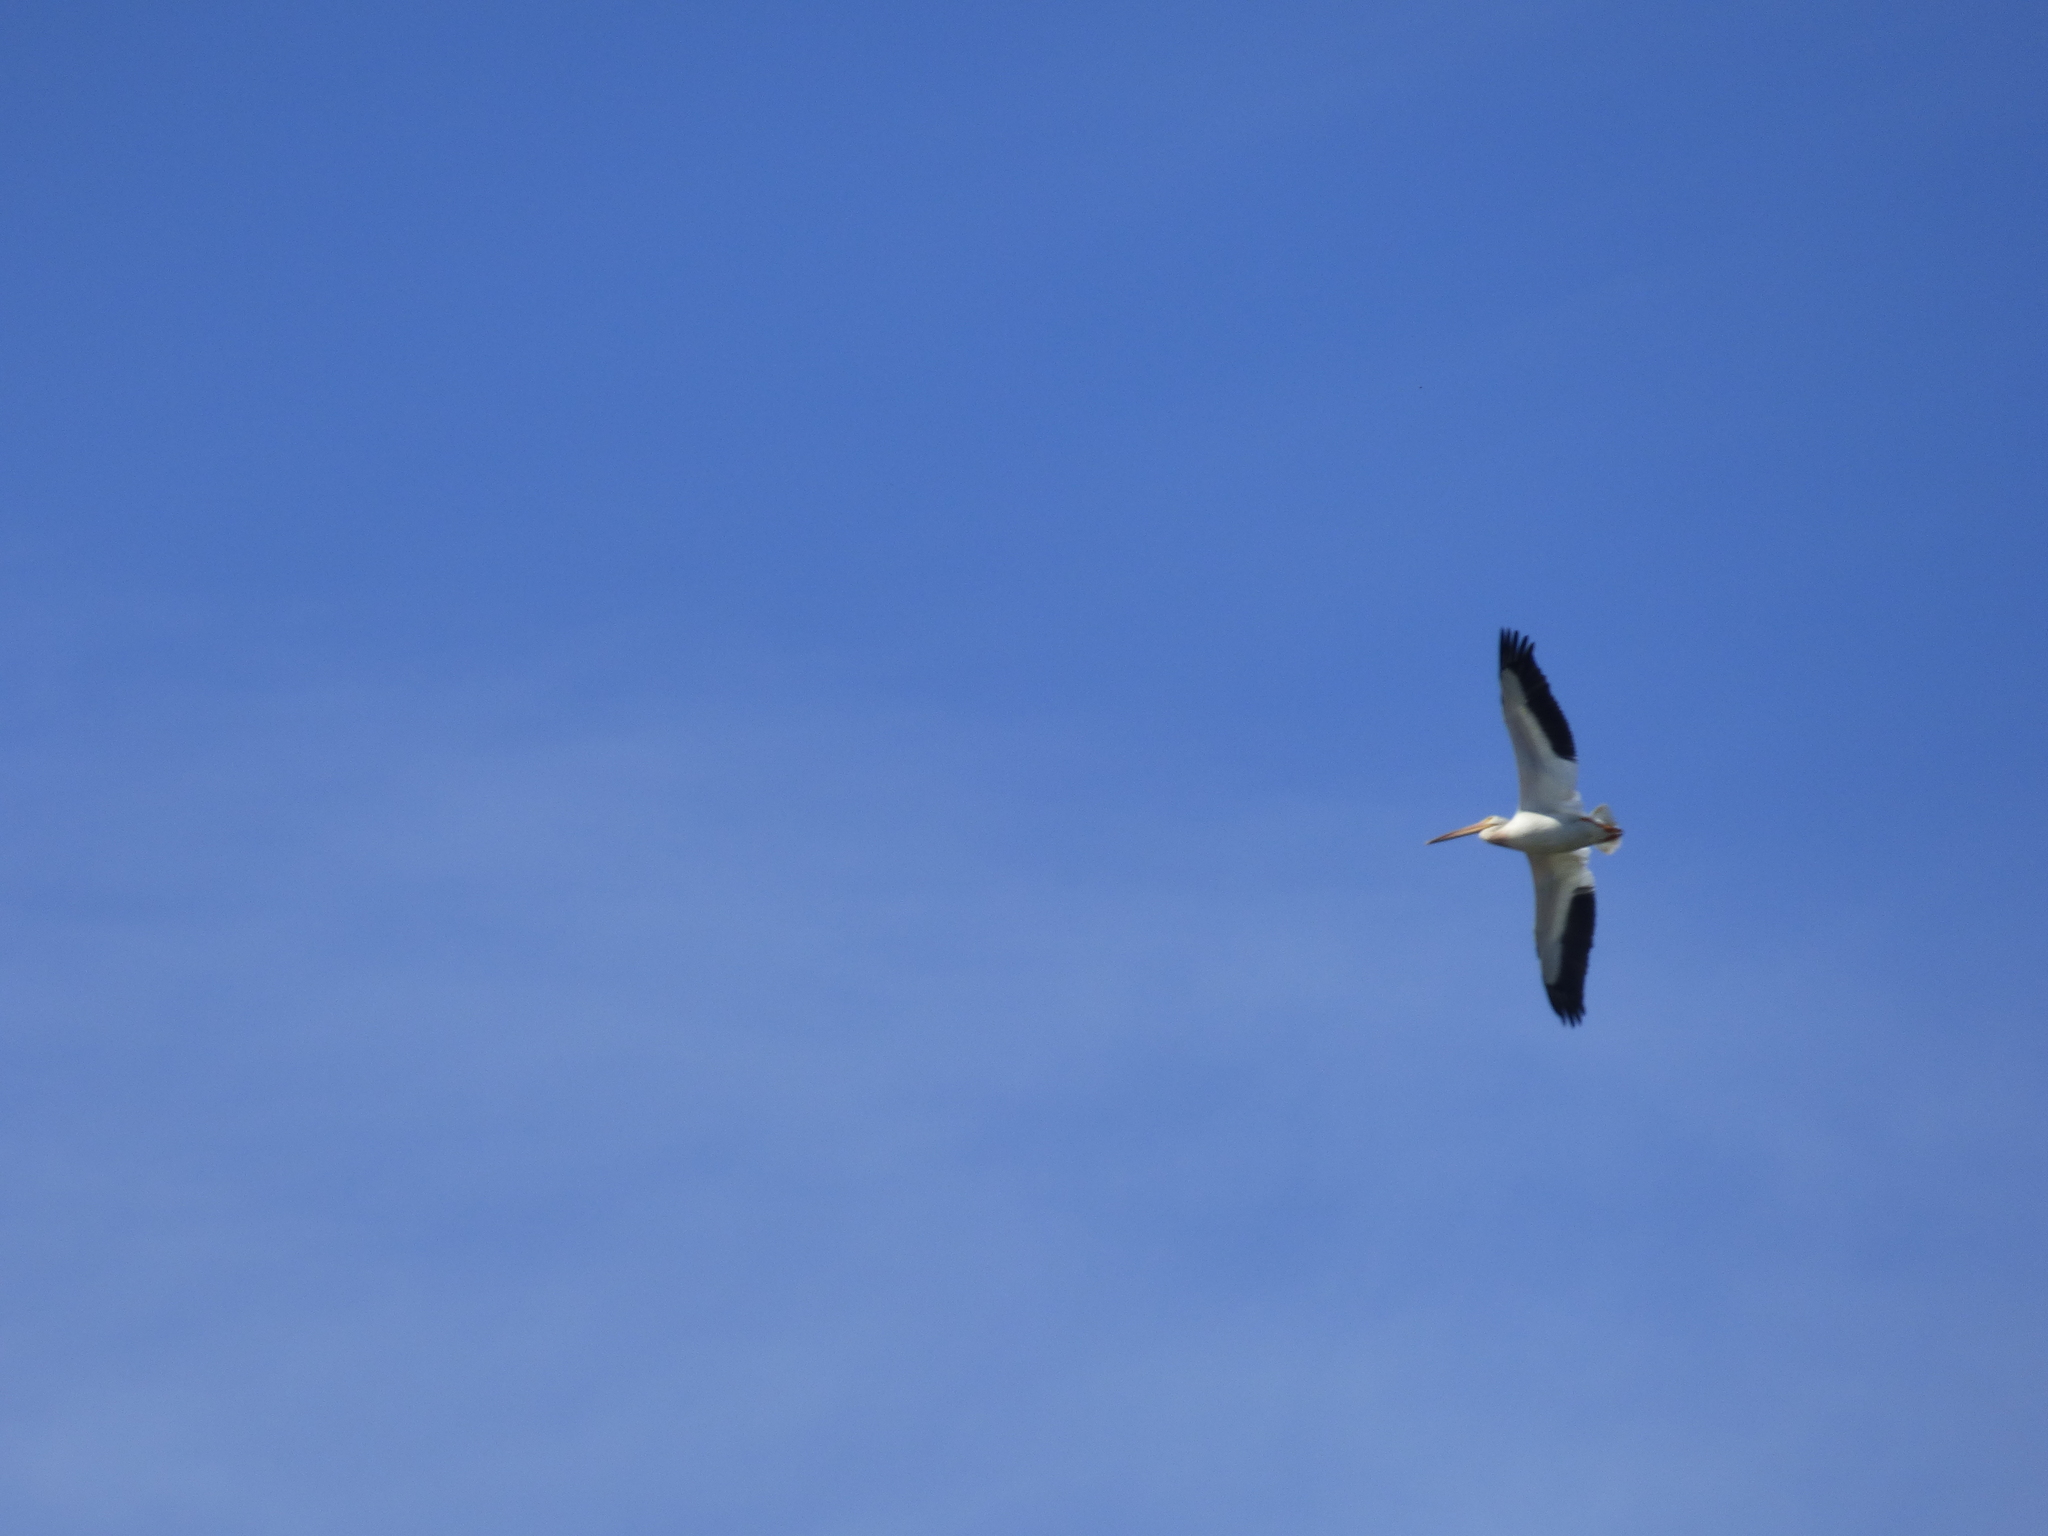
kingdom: Animalia
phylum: Chordata
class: Aves
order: Pelecaniformes
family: Pelecanidae
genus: Pelecanus
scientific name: Pelecanus erythrorhynchos
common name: American white pelican
